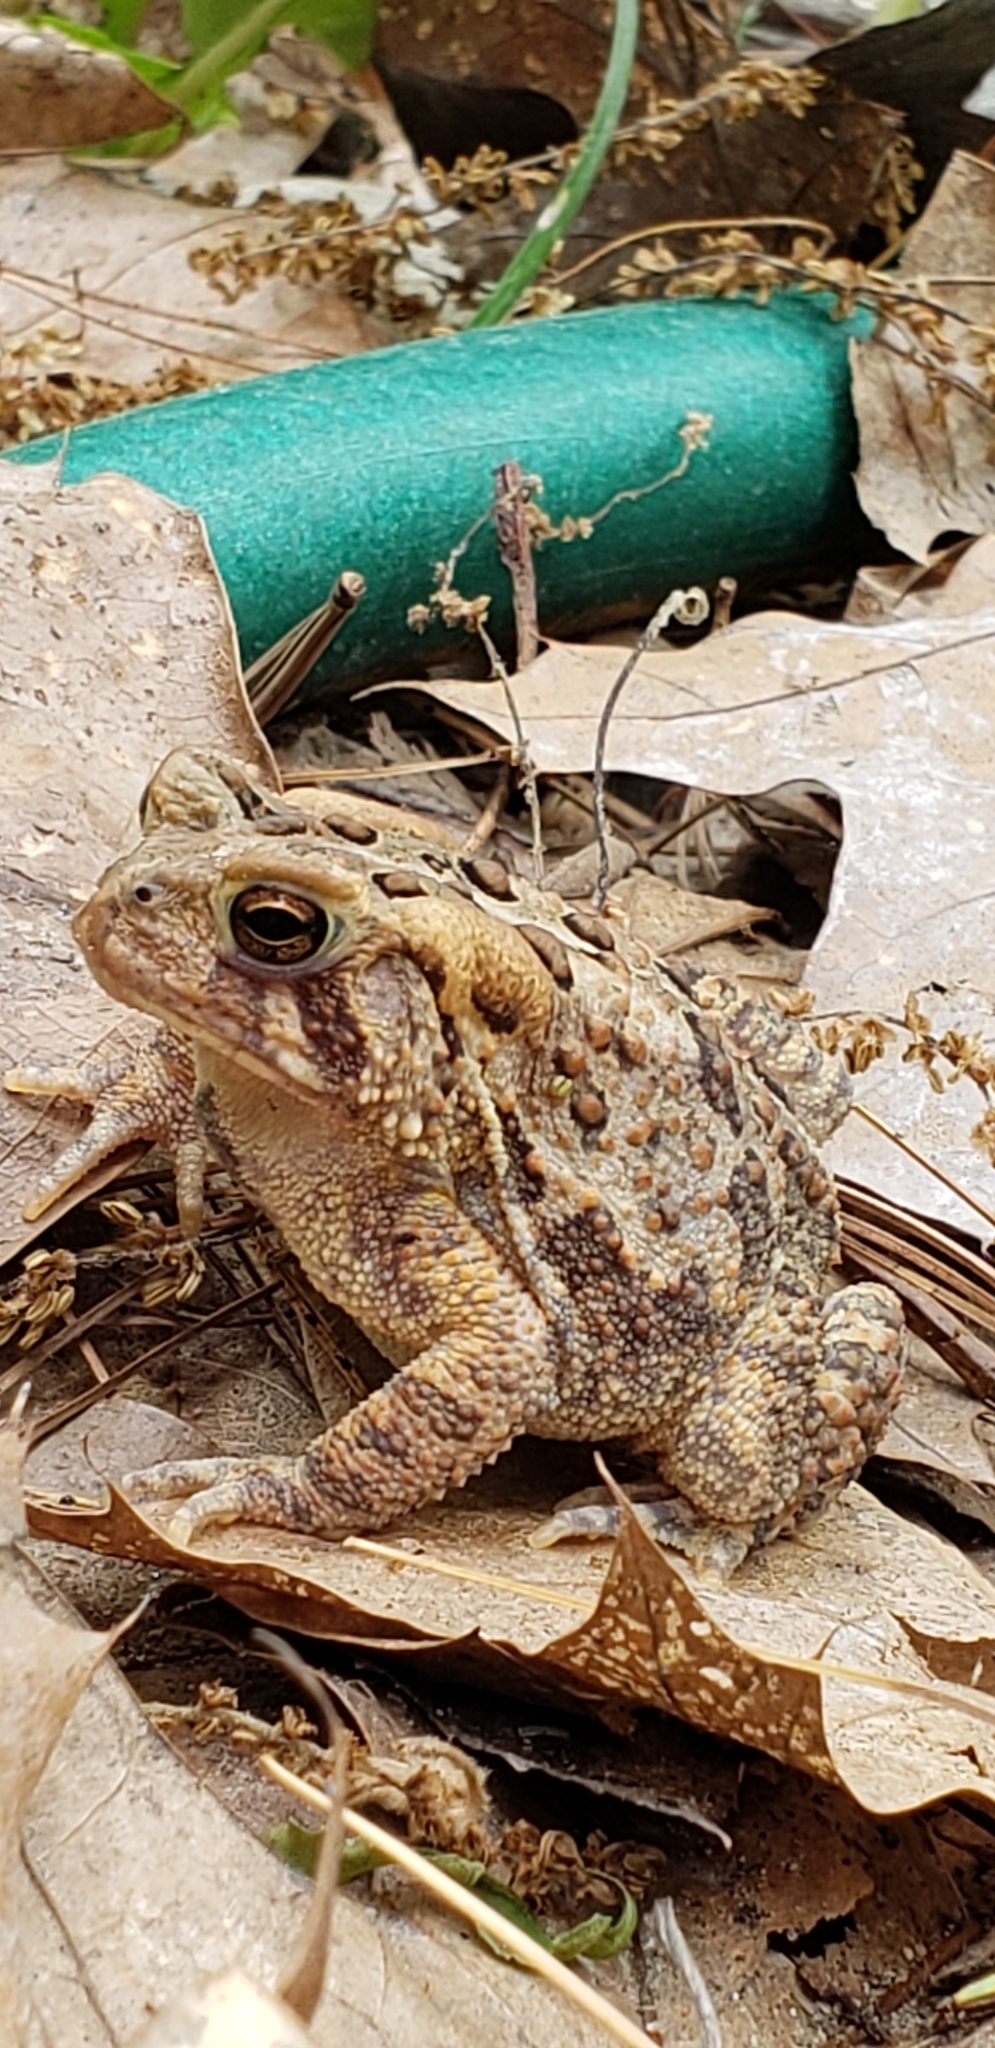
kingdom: Animalia
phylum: Chordata
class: Amphibia
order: Anura
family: Bufonidae
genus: Anaxyrus
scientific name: Anaxyrus americanus
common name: American toad
